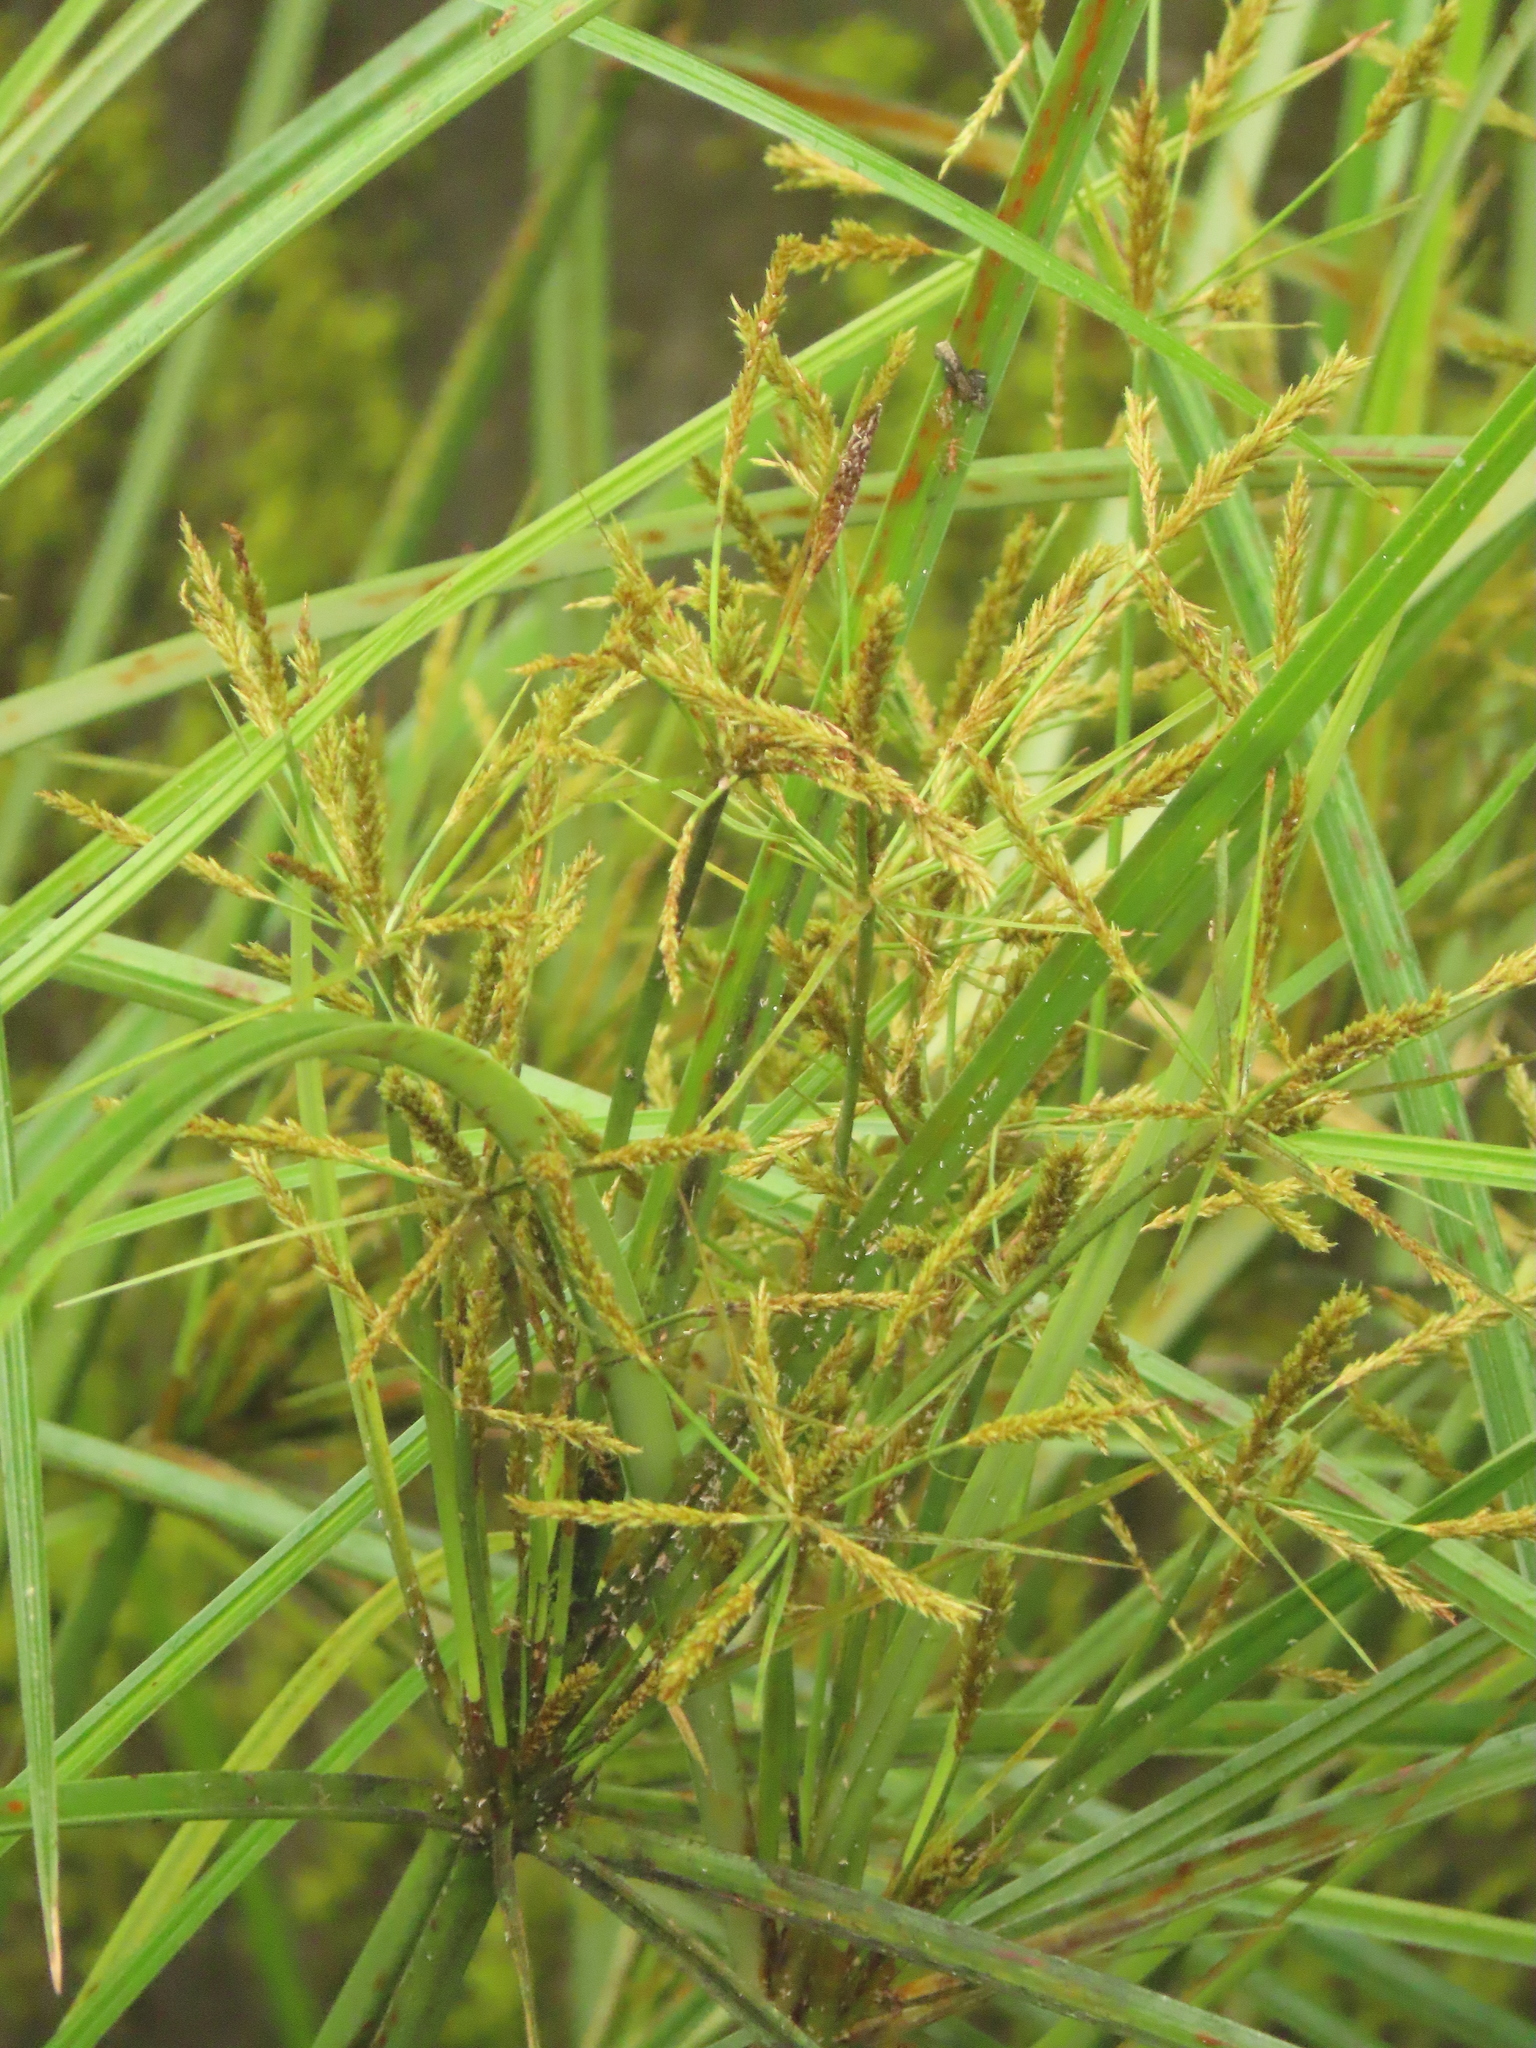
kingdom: Plantae
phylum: Tracheophyta
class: Liliopsida
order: Poales
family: Cyperaceae
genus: Cyperus
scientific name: Cyperus nutans
